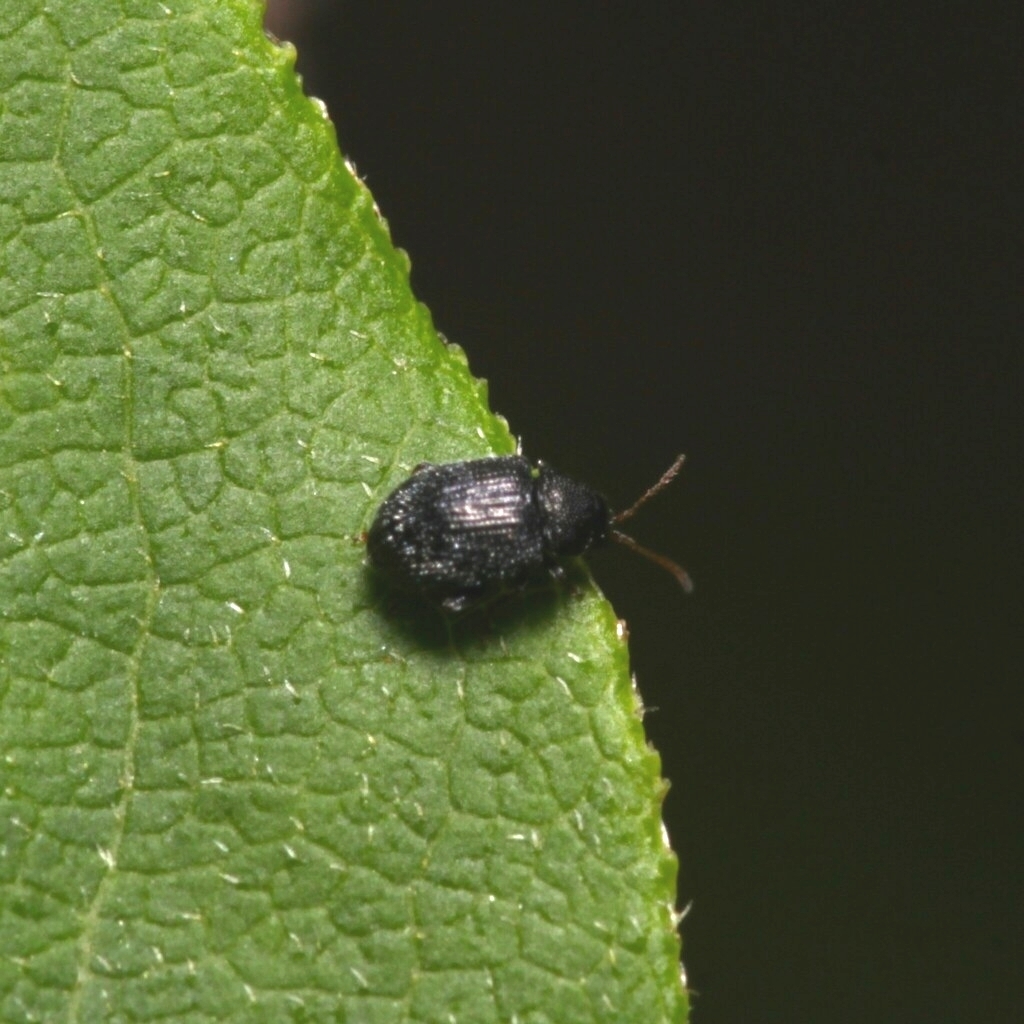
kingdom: Animalia
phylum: Arthropoda
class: Insecta
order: Coleoptera
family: Chrysomelidae
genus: Epitrix
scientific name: Epitrix fuscula
